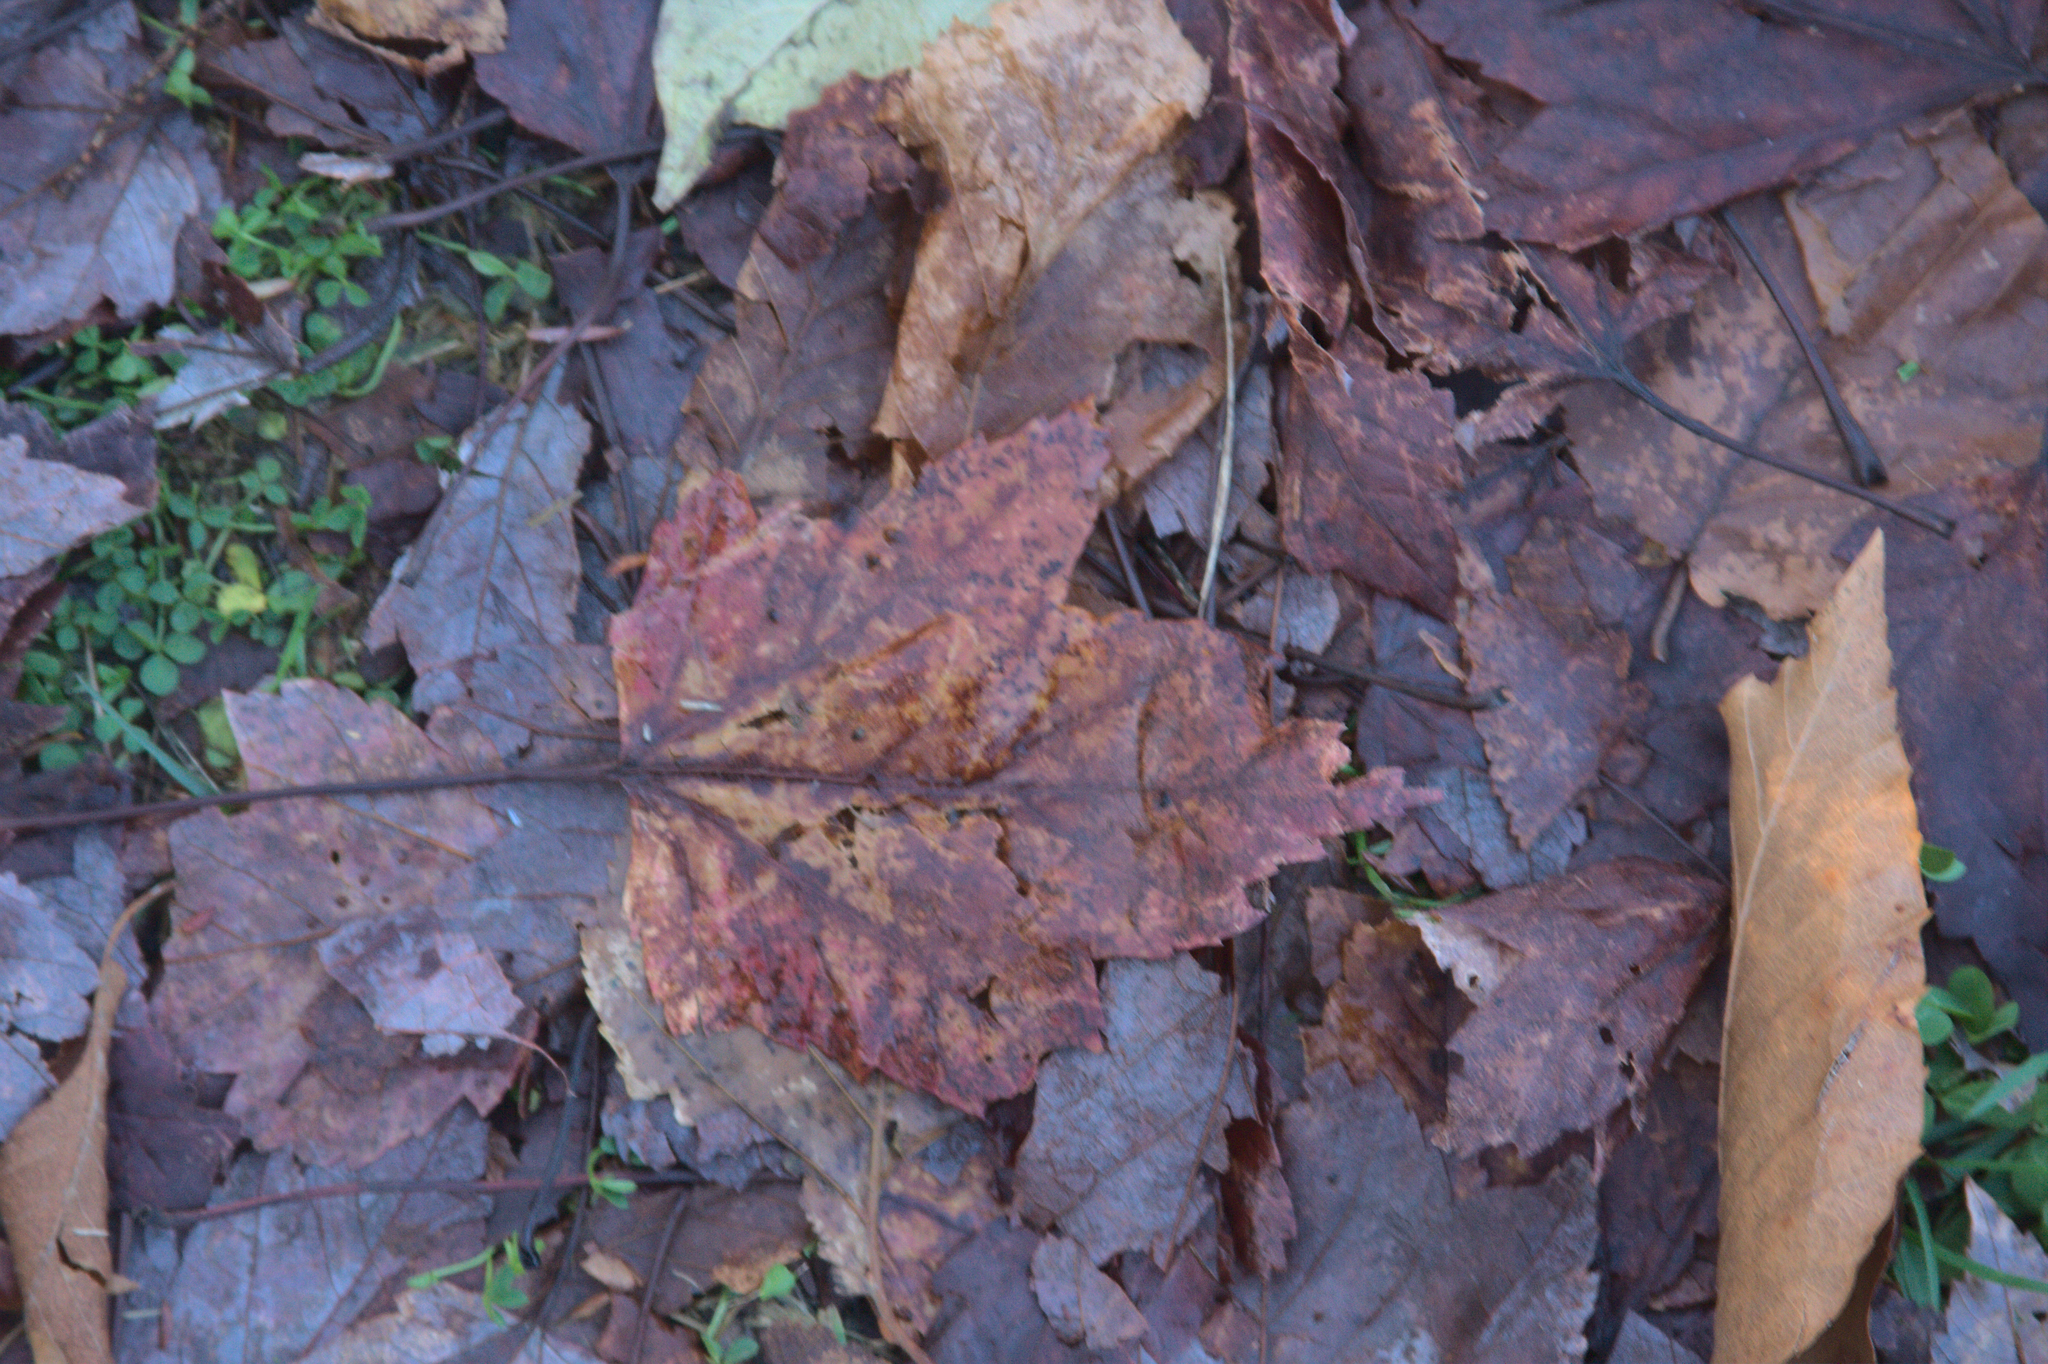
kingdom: Plantae
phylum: Tracheophyta
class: Magnoliopsida
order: Sapindales
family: Sapindaceae
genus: Acer
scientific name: Acer rubrum
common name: Red maple
